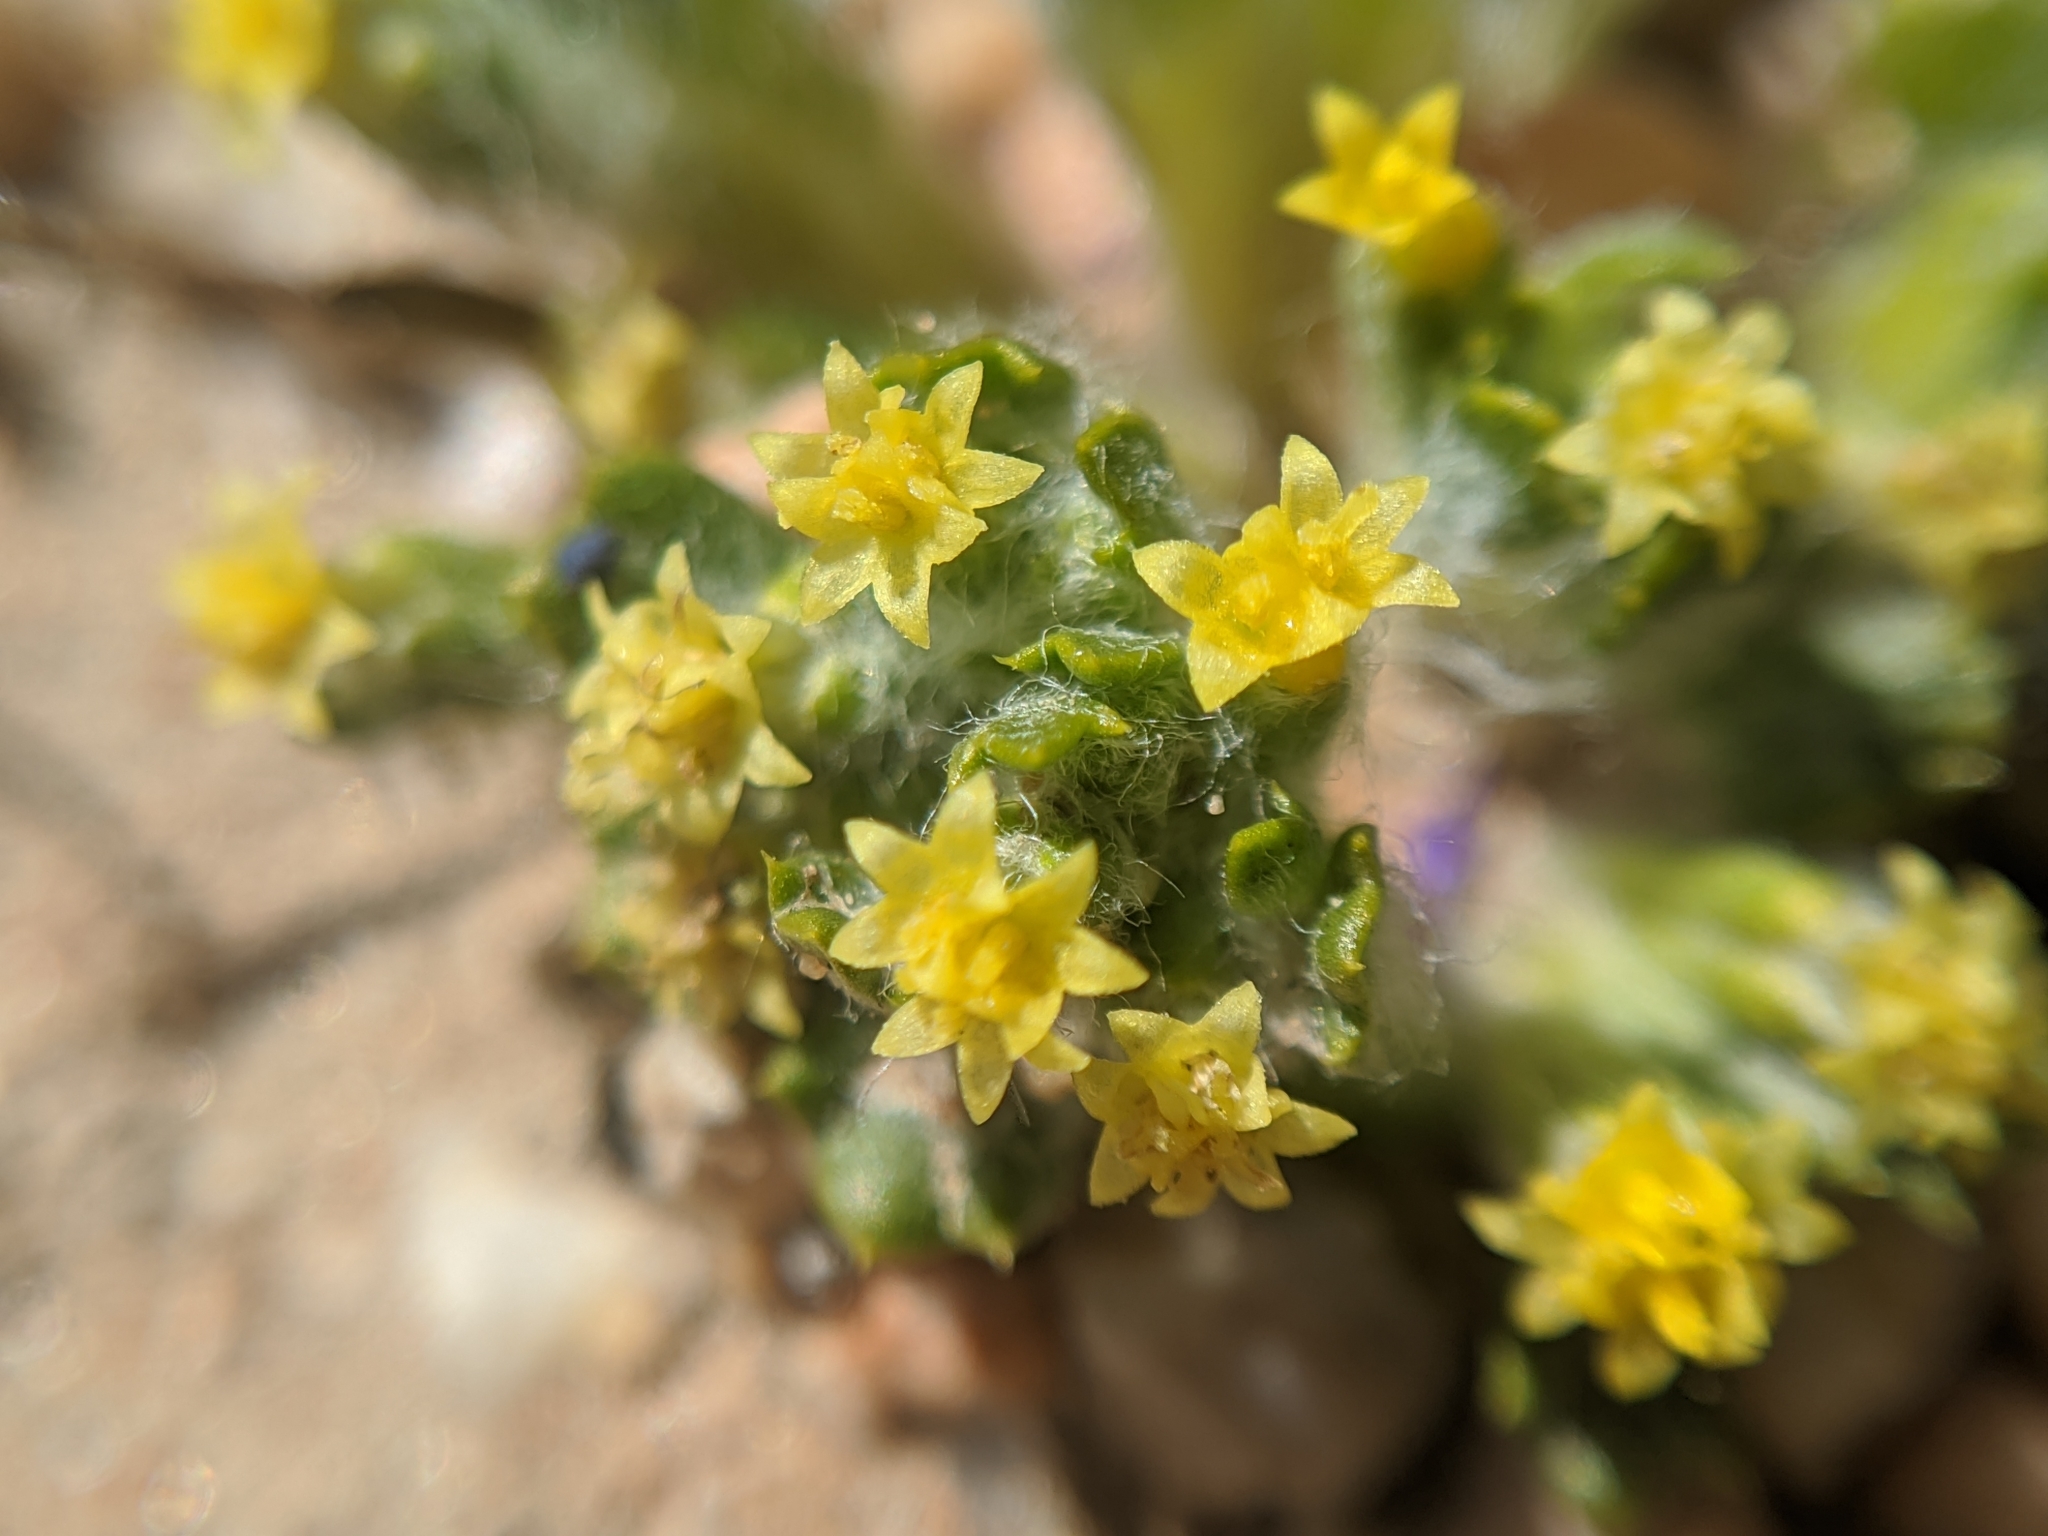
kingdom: Plantae
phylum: Tracheophyta
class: Magnoliopsida
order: Asterales
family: Asteraceae
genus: Eriophyllum
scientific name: Eriophyllum mohavense
